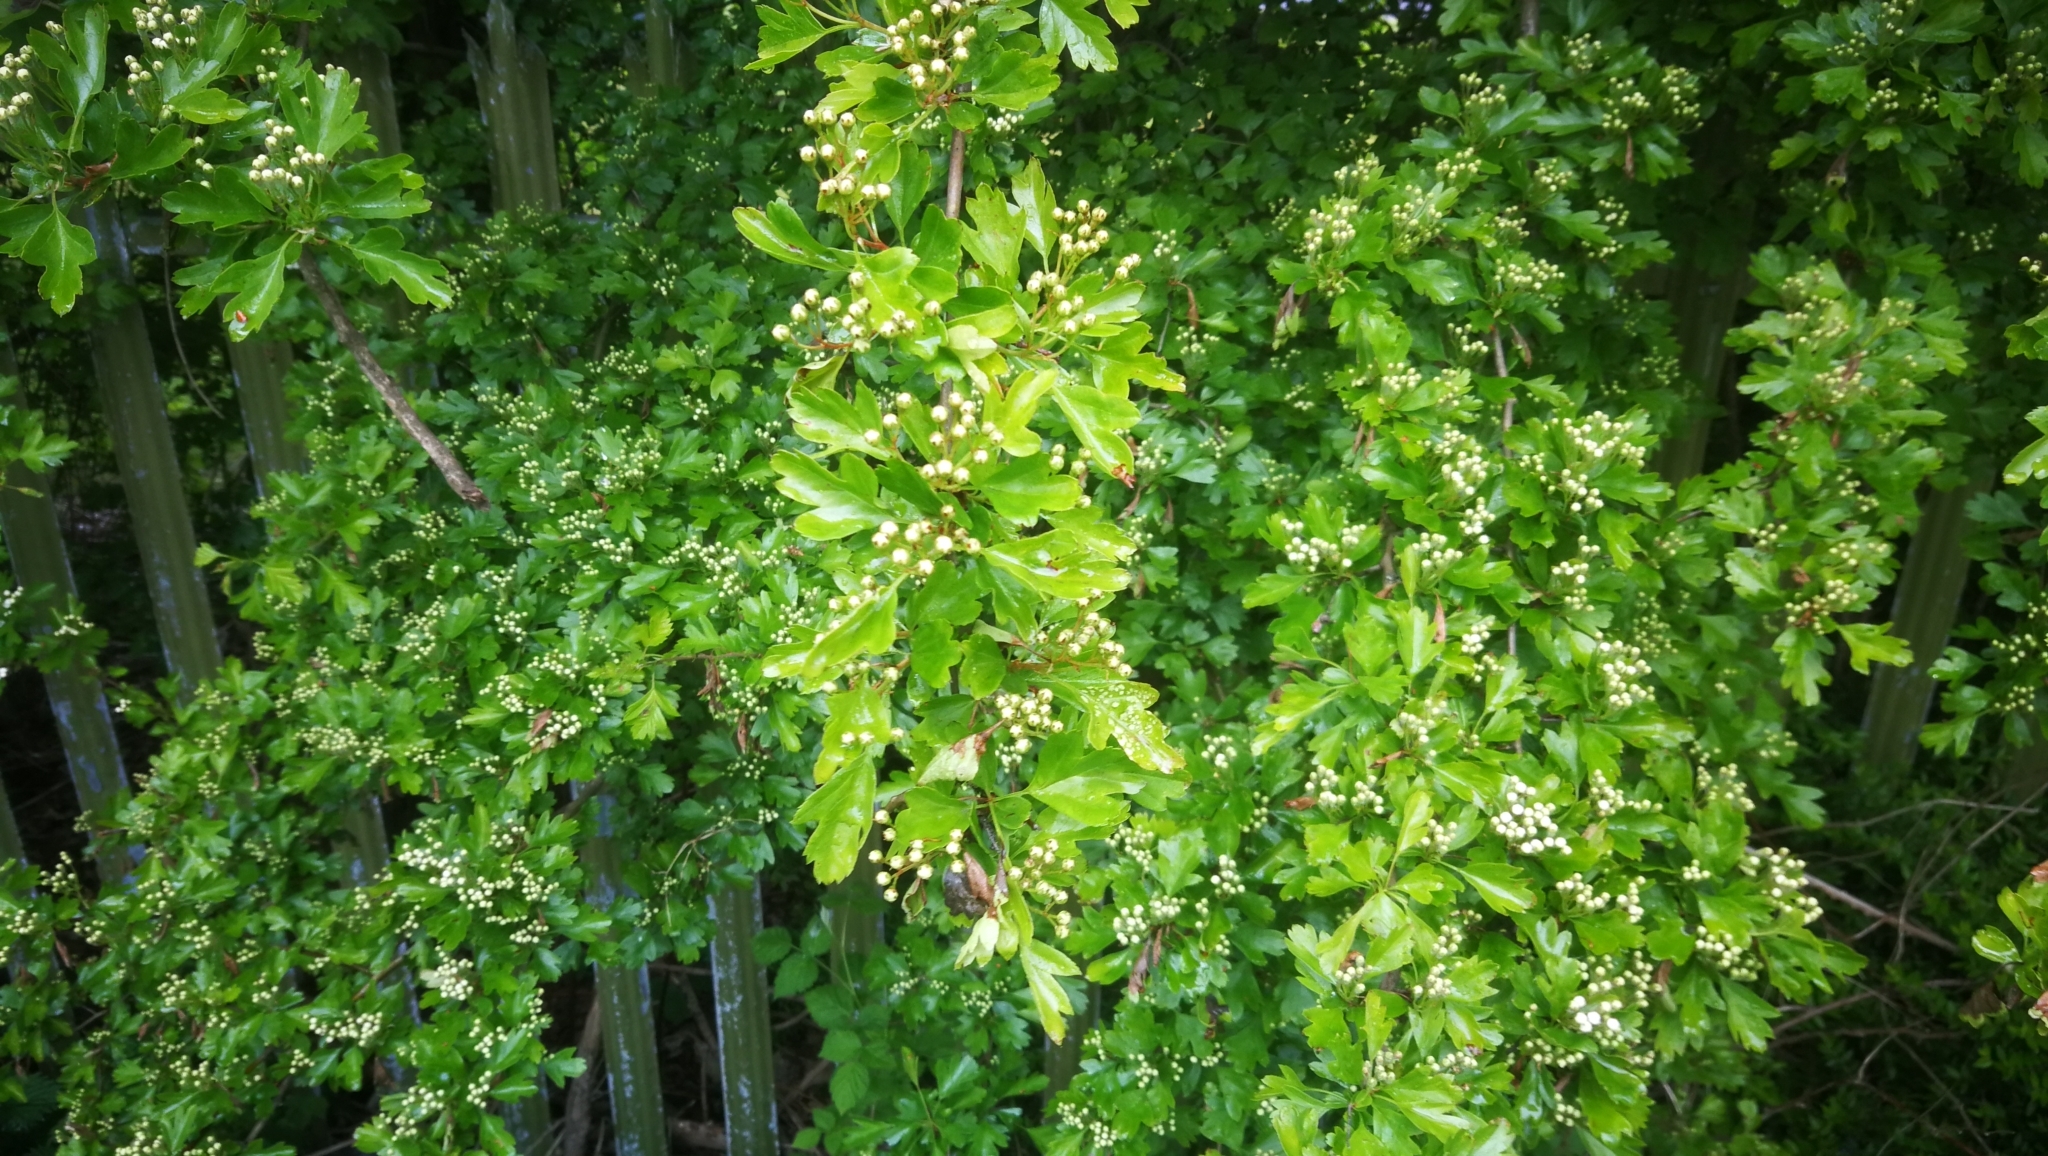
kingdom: Plantae
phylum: Tracheophyta
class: Magnoliopsida
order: Rosales
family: Rosaceae
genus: Crataegus
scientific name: Crataegus monogyna
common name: Hawthorn
